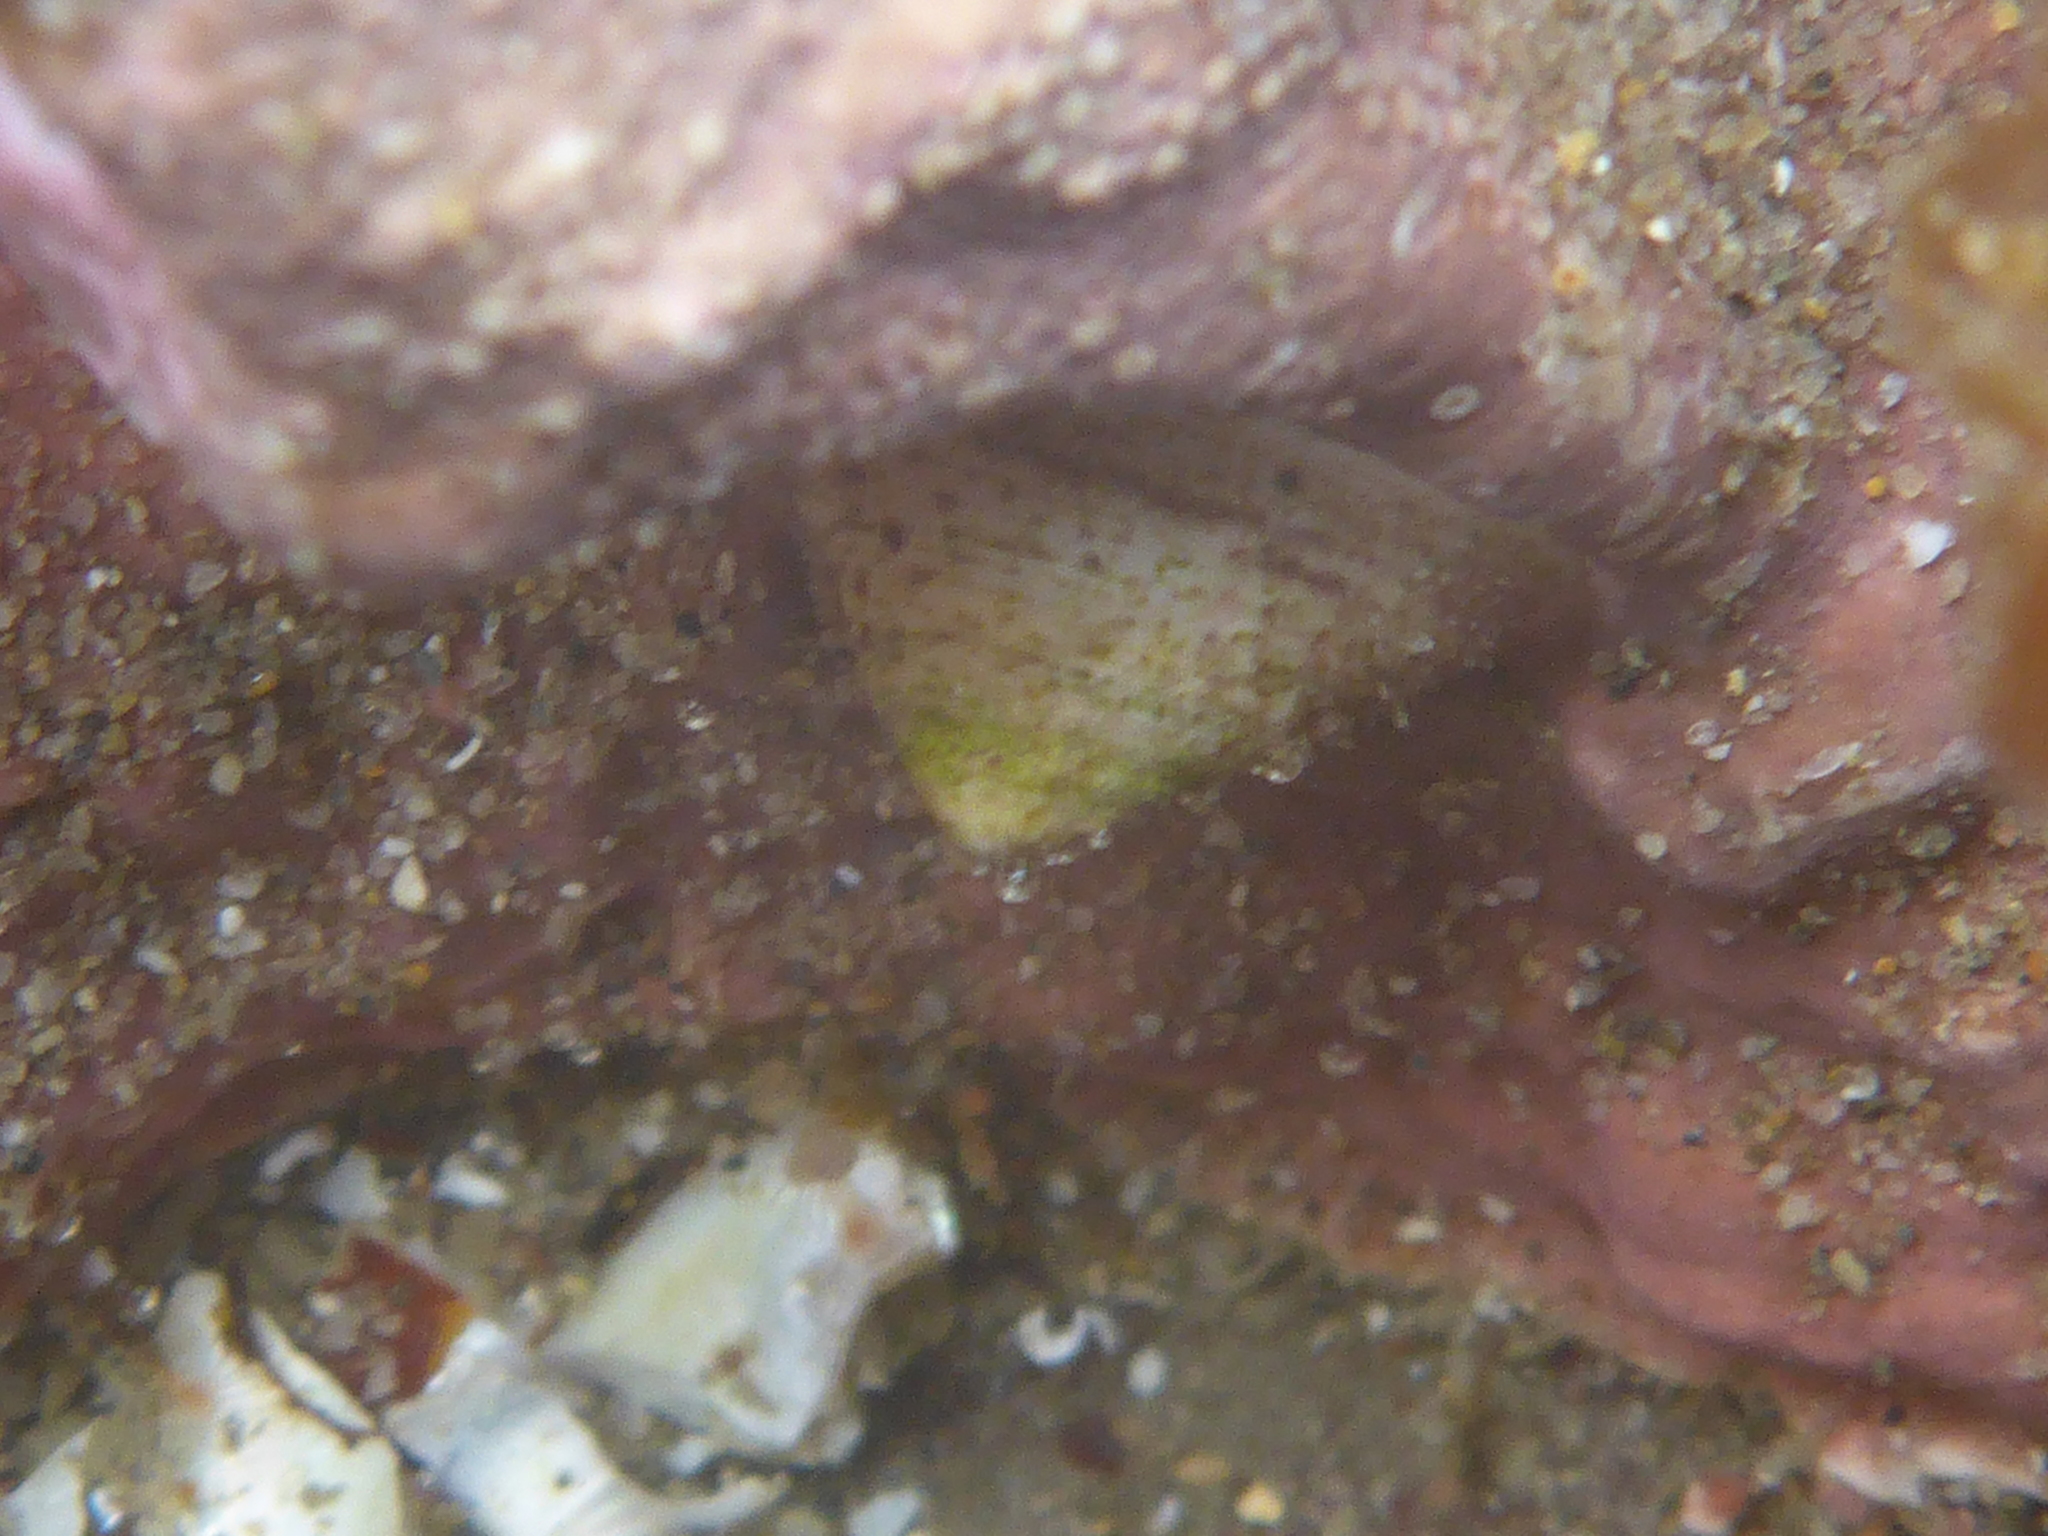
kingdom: Animalia
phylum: Mollusca
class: Gastropoda
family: Acmaeidae
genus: Acmaea
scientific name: Acmaea mitra
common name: Pacific white cap limpet
